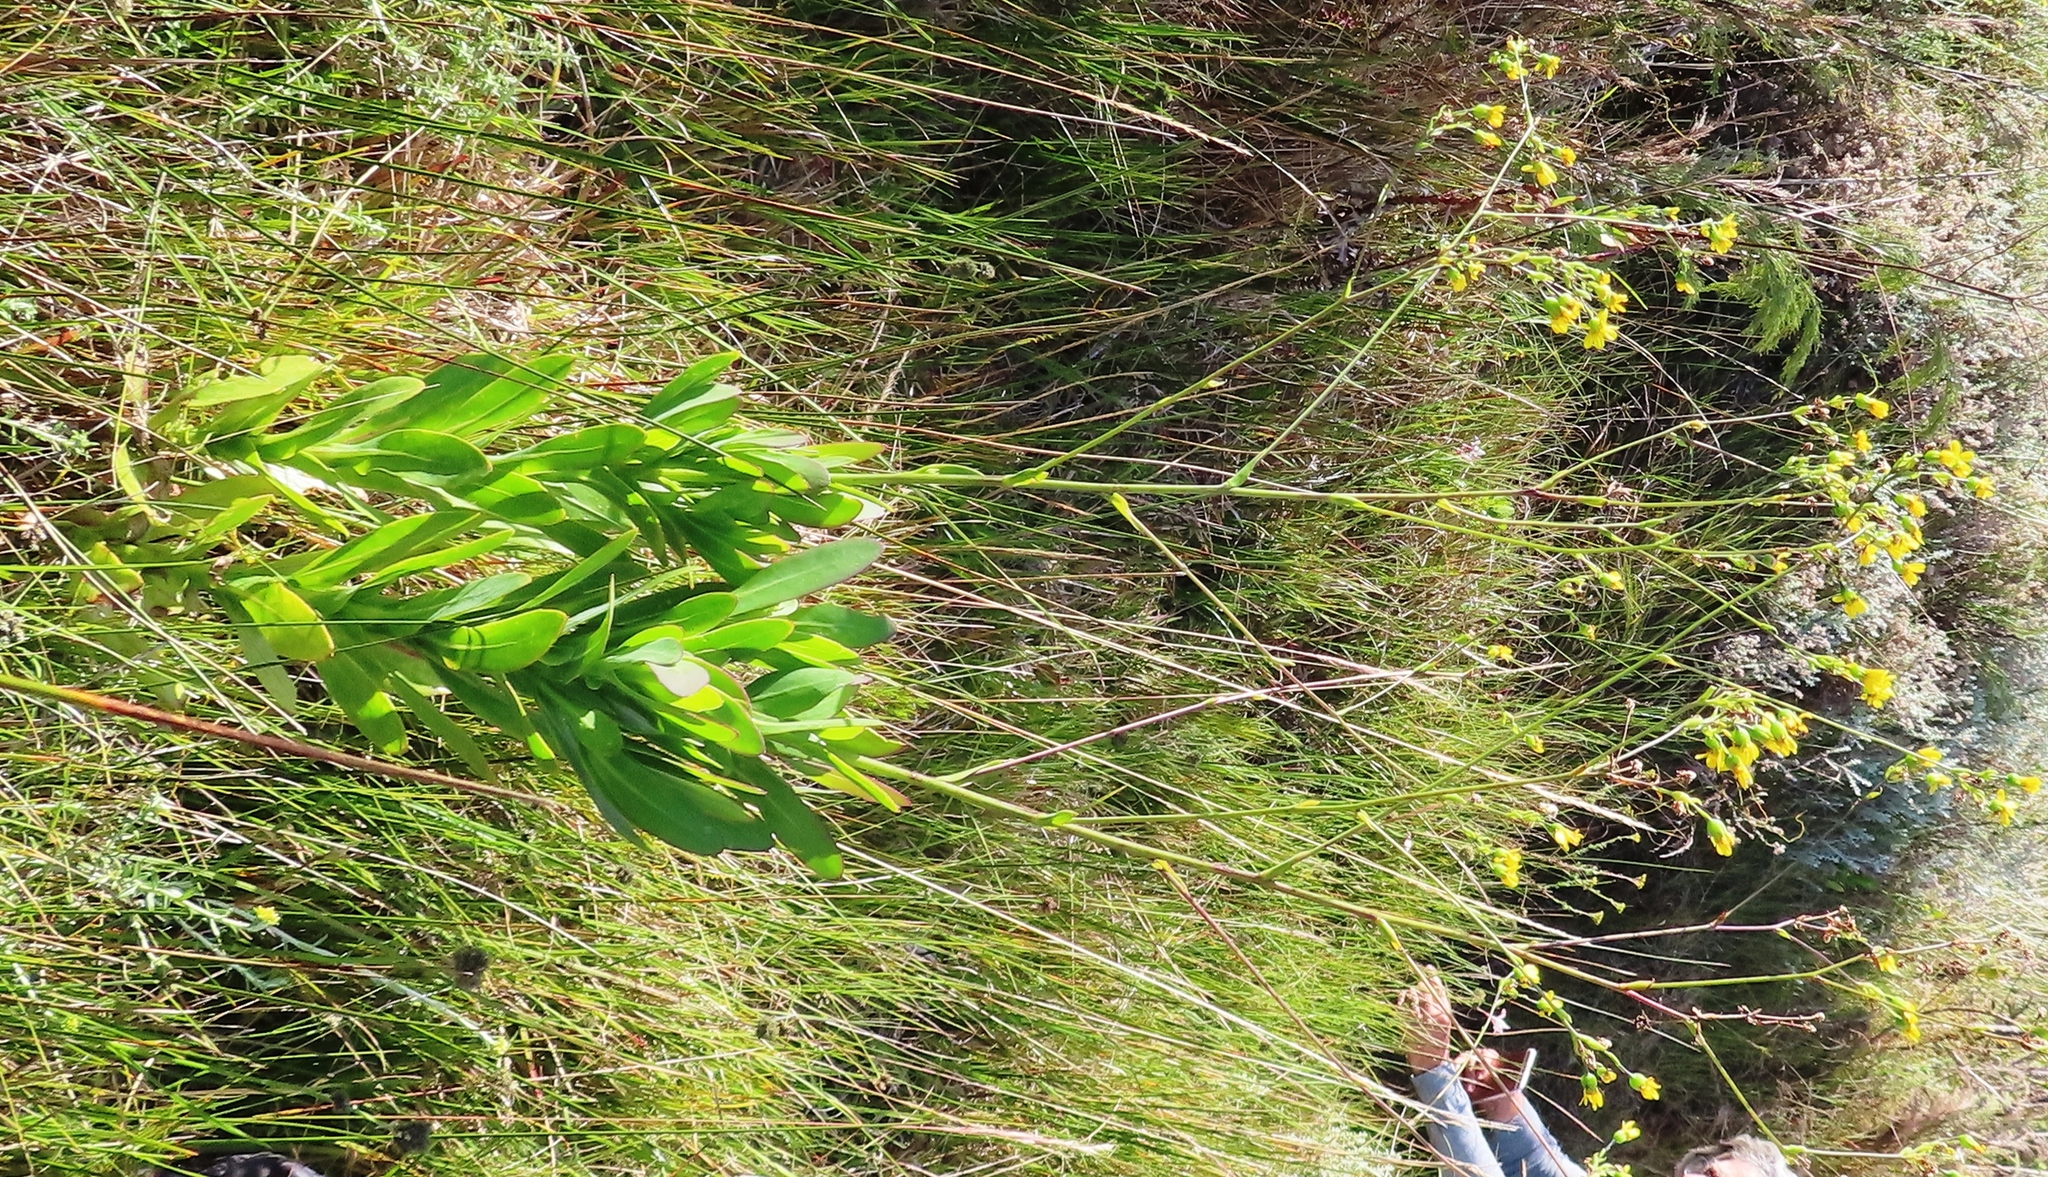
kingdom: Plantae
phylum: Tracheophyta
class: Magnoliopsida
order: Asterales
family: Asteraceae
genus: Othonna
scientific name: Othonna quinquedentata
